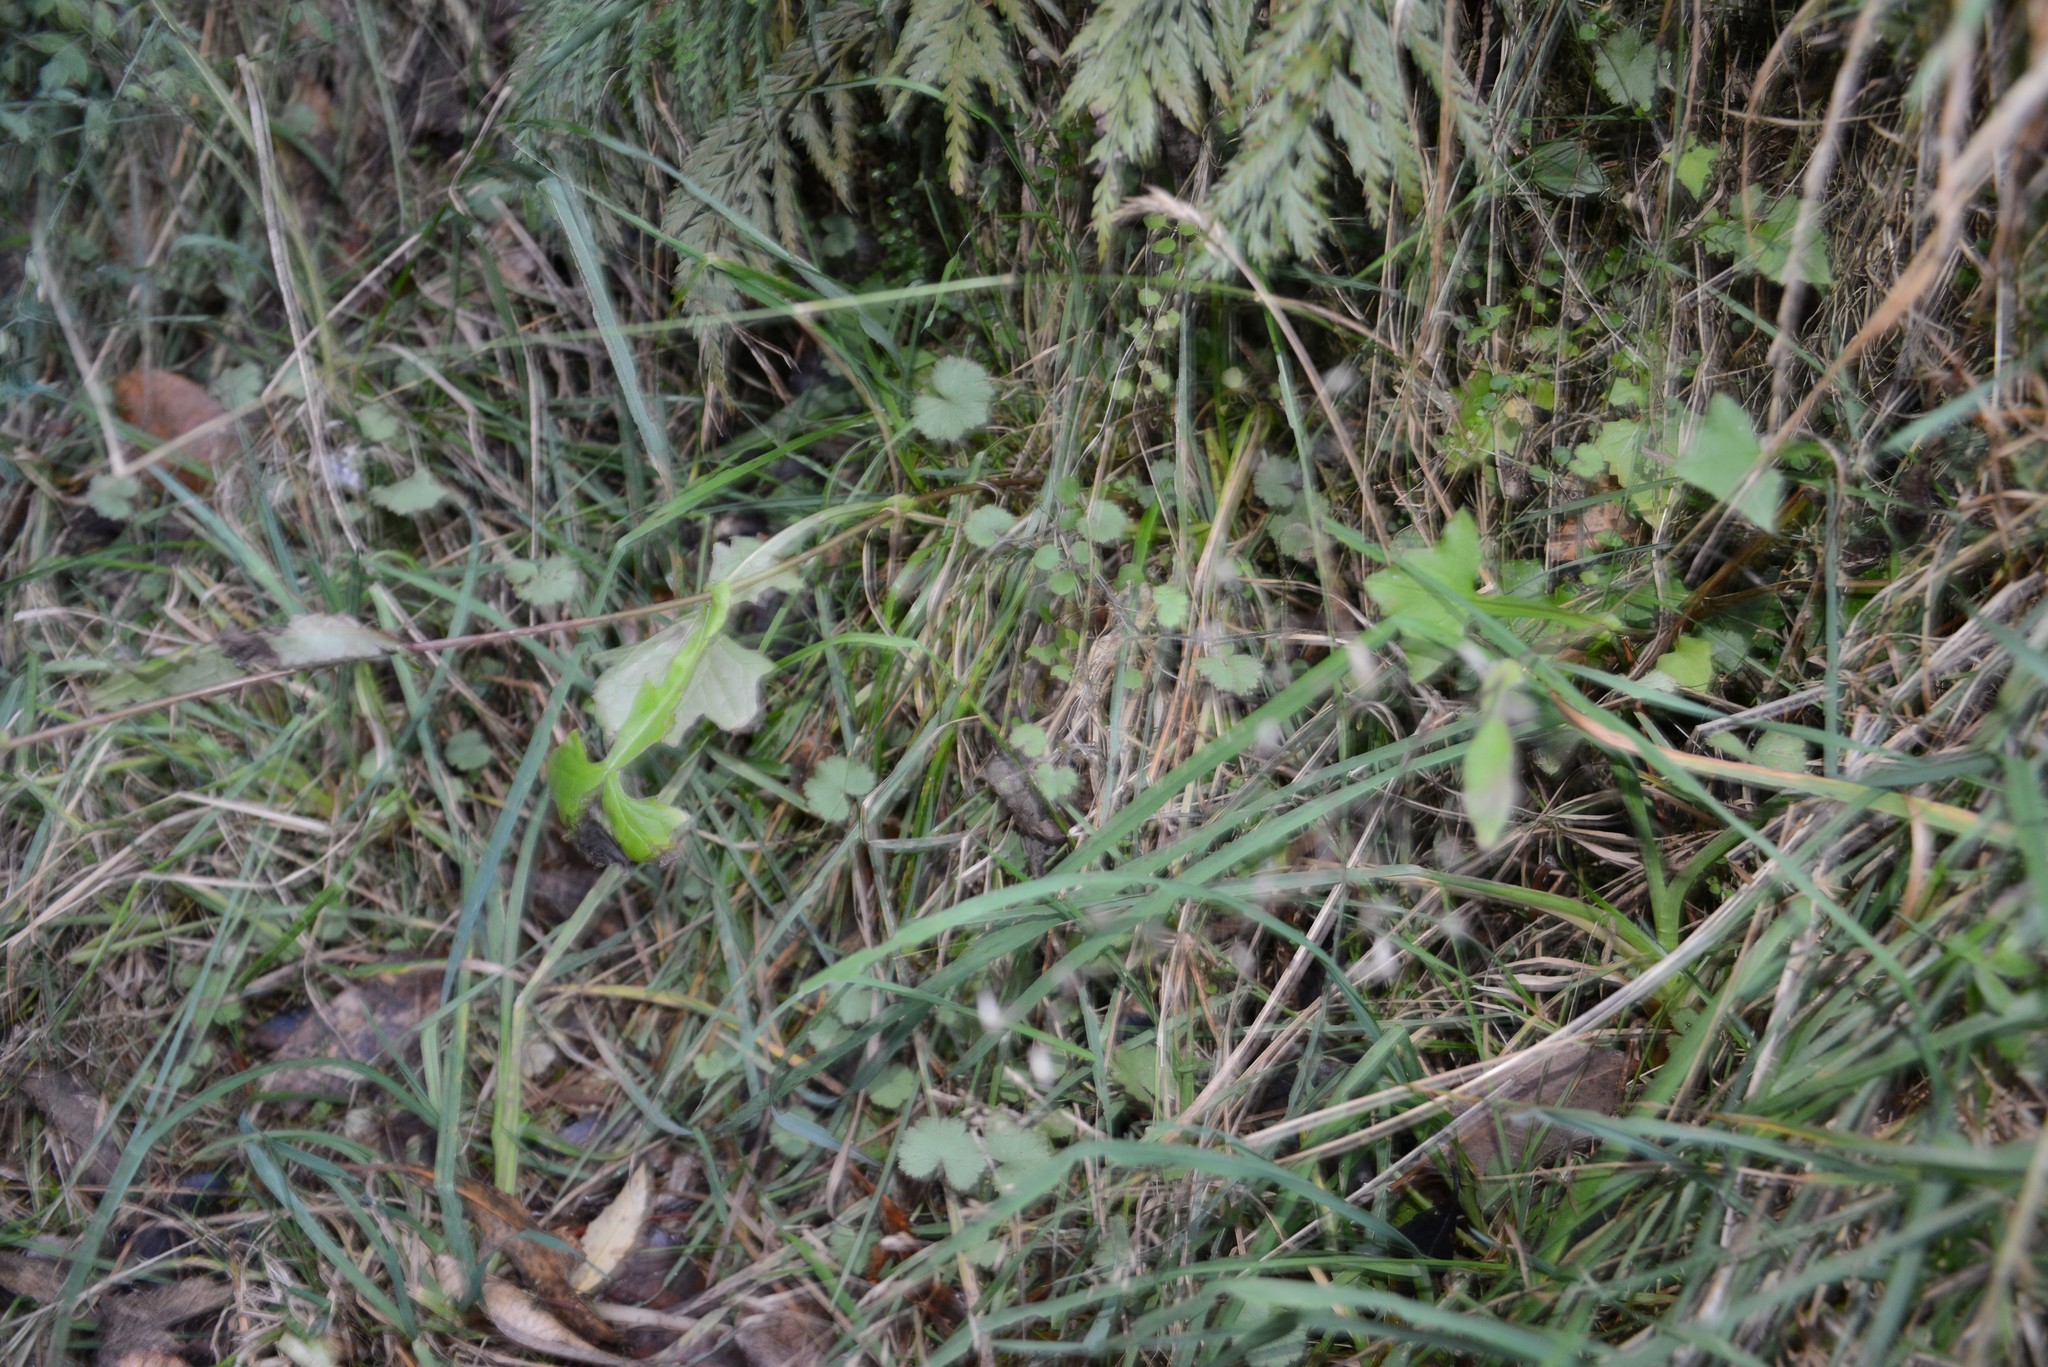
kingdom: Plantae
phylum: Tracheophyta
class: Magnoliopsida
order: Asterales
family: Asteraceae
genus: Mycelis
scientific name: Mycelis muralis
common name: Wall lettuce
